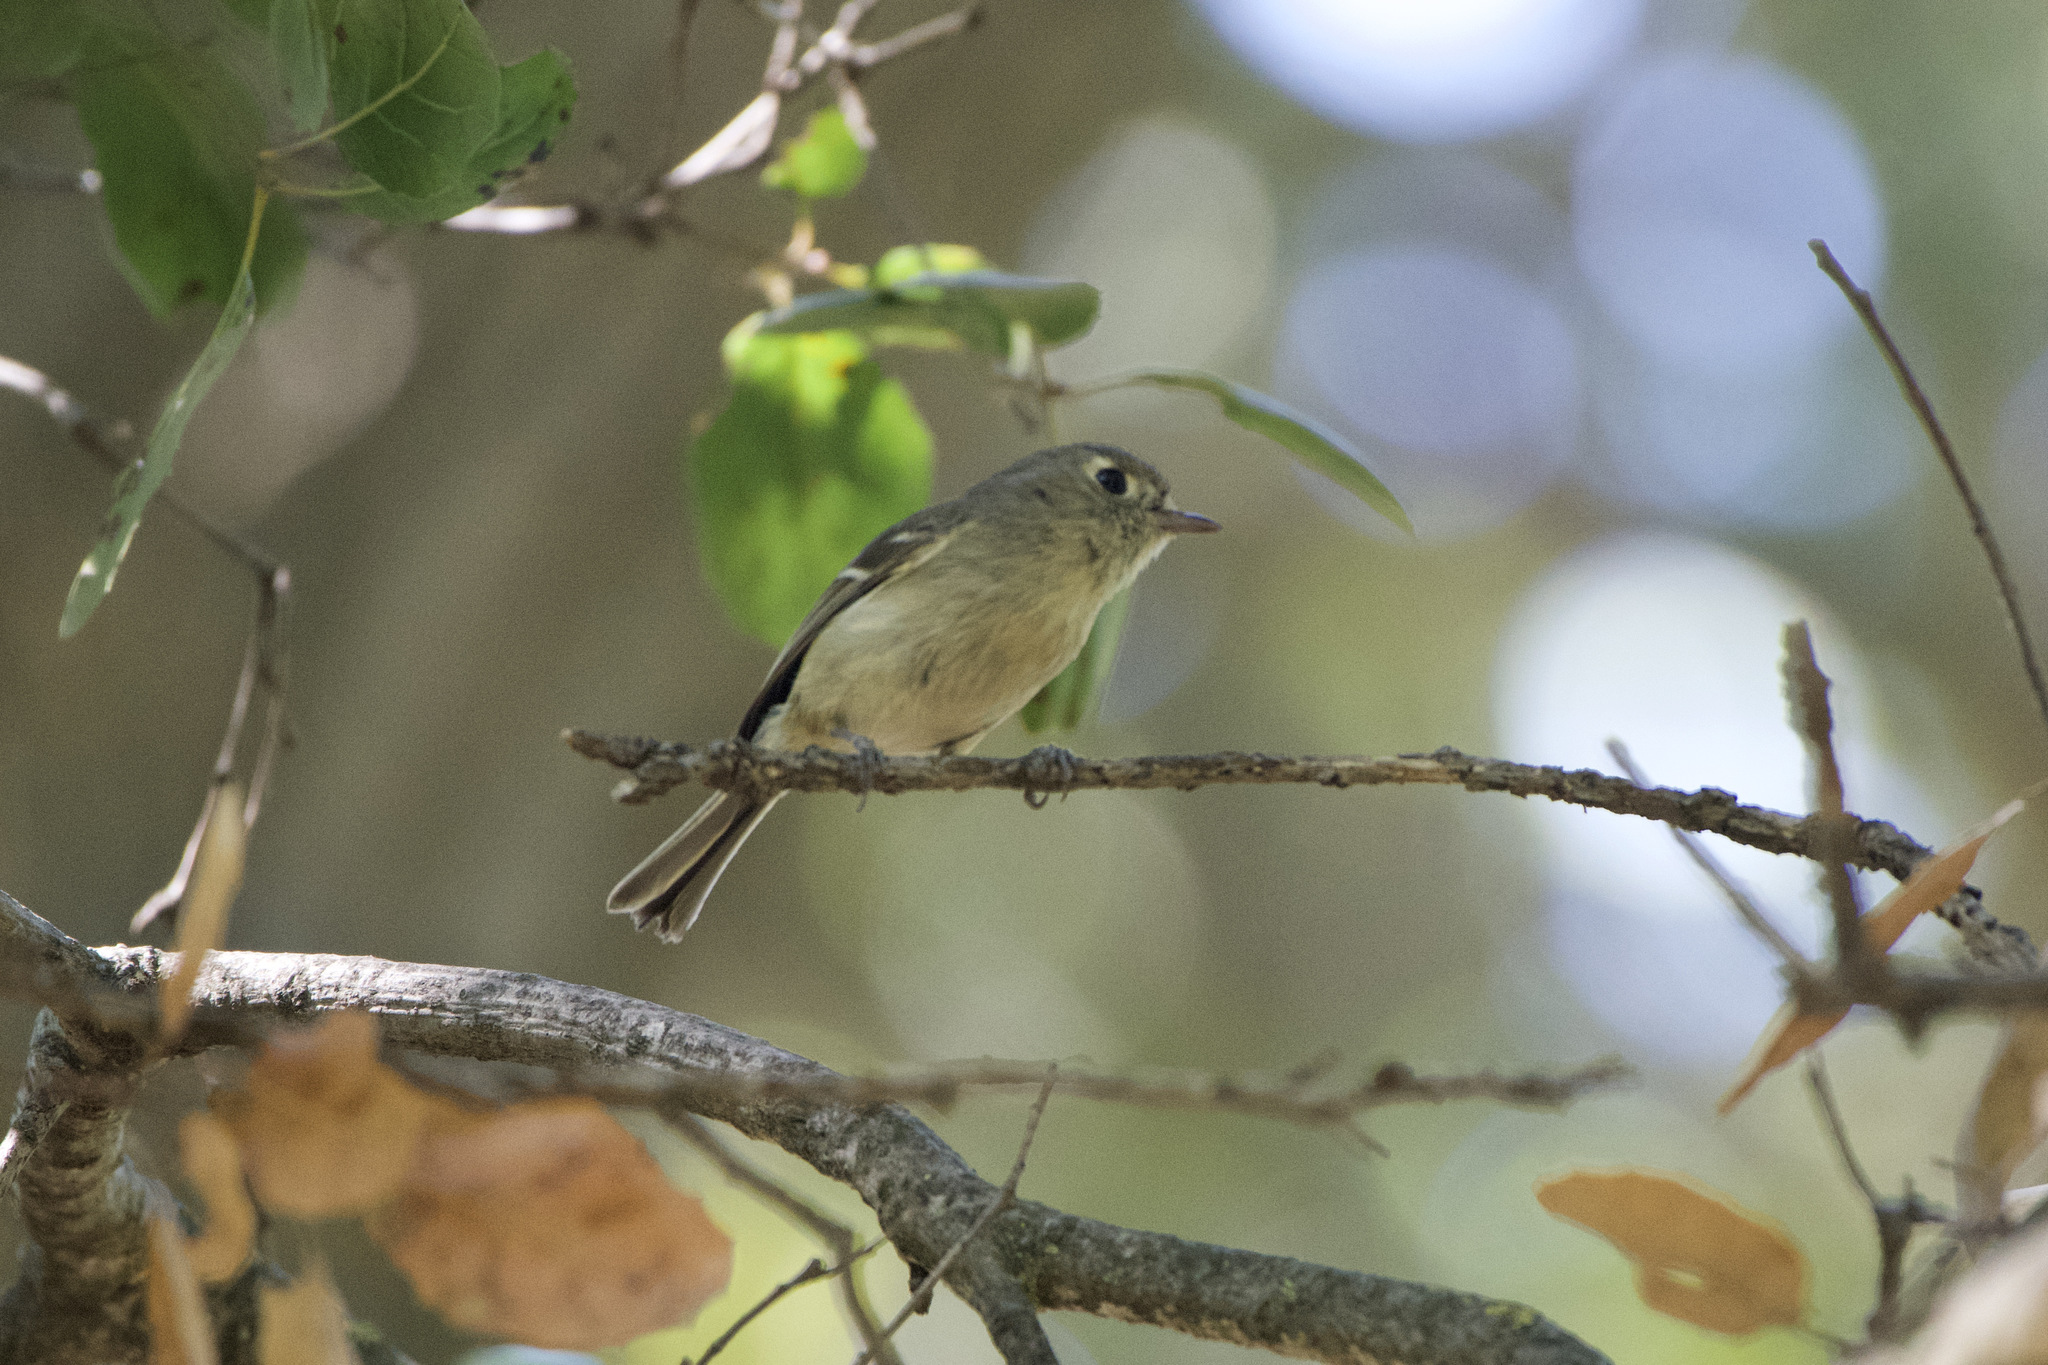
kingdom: Animalia
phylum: Chordata
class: Aves
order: Passeriformes
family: Vireonidae
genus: Vireo
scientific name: Vireo huttoni
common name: Hutton's vireo
